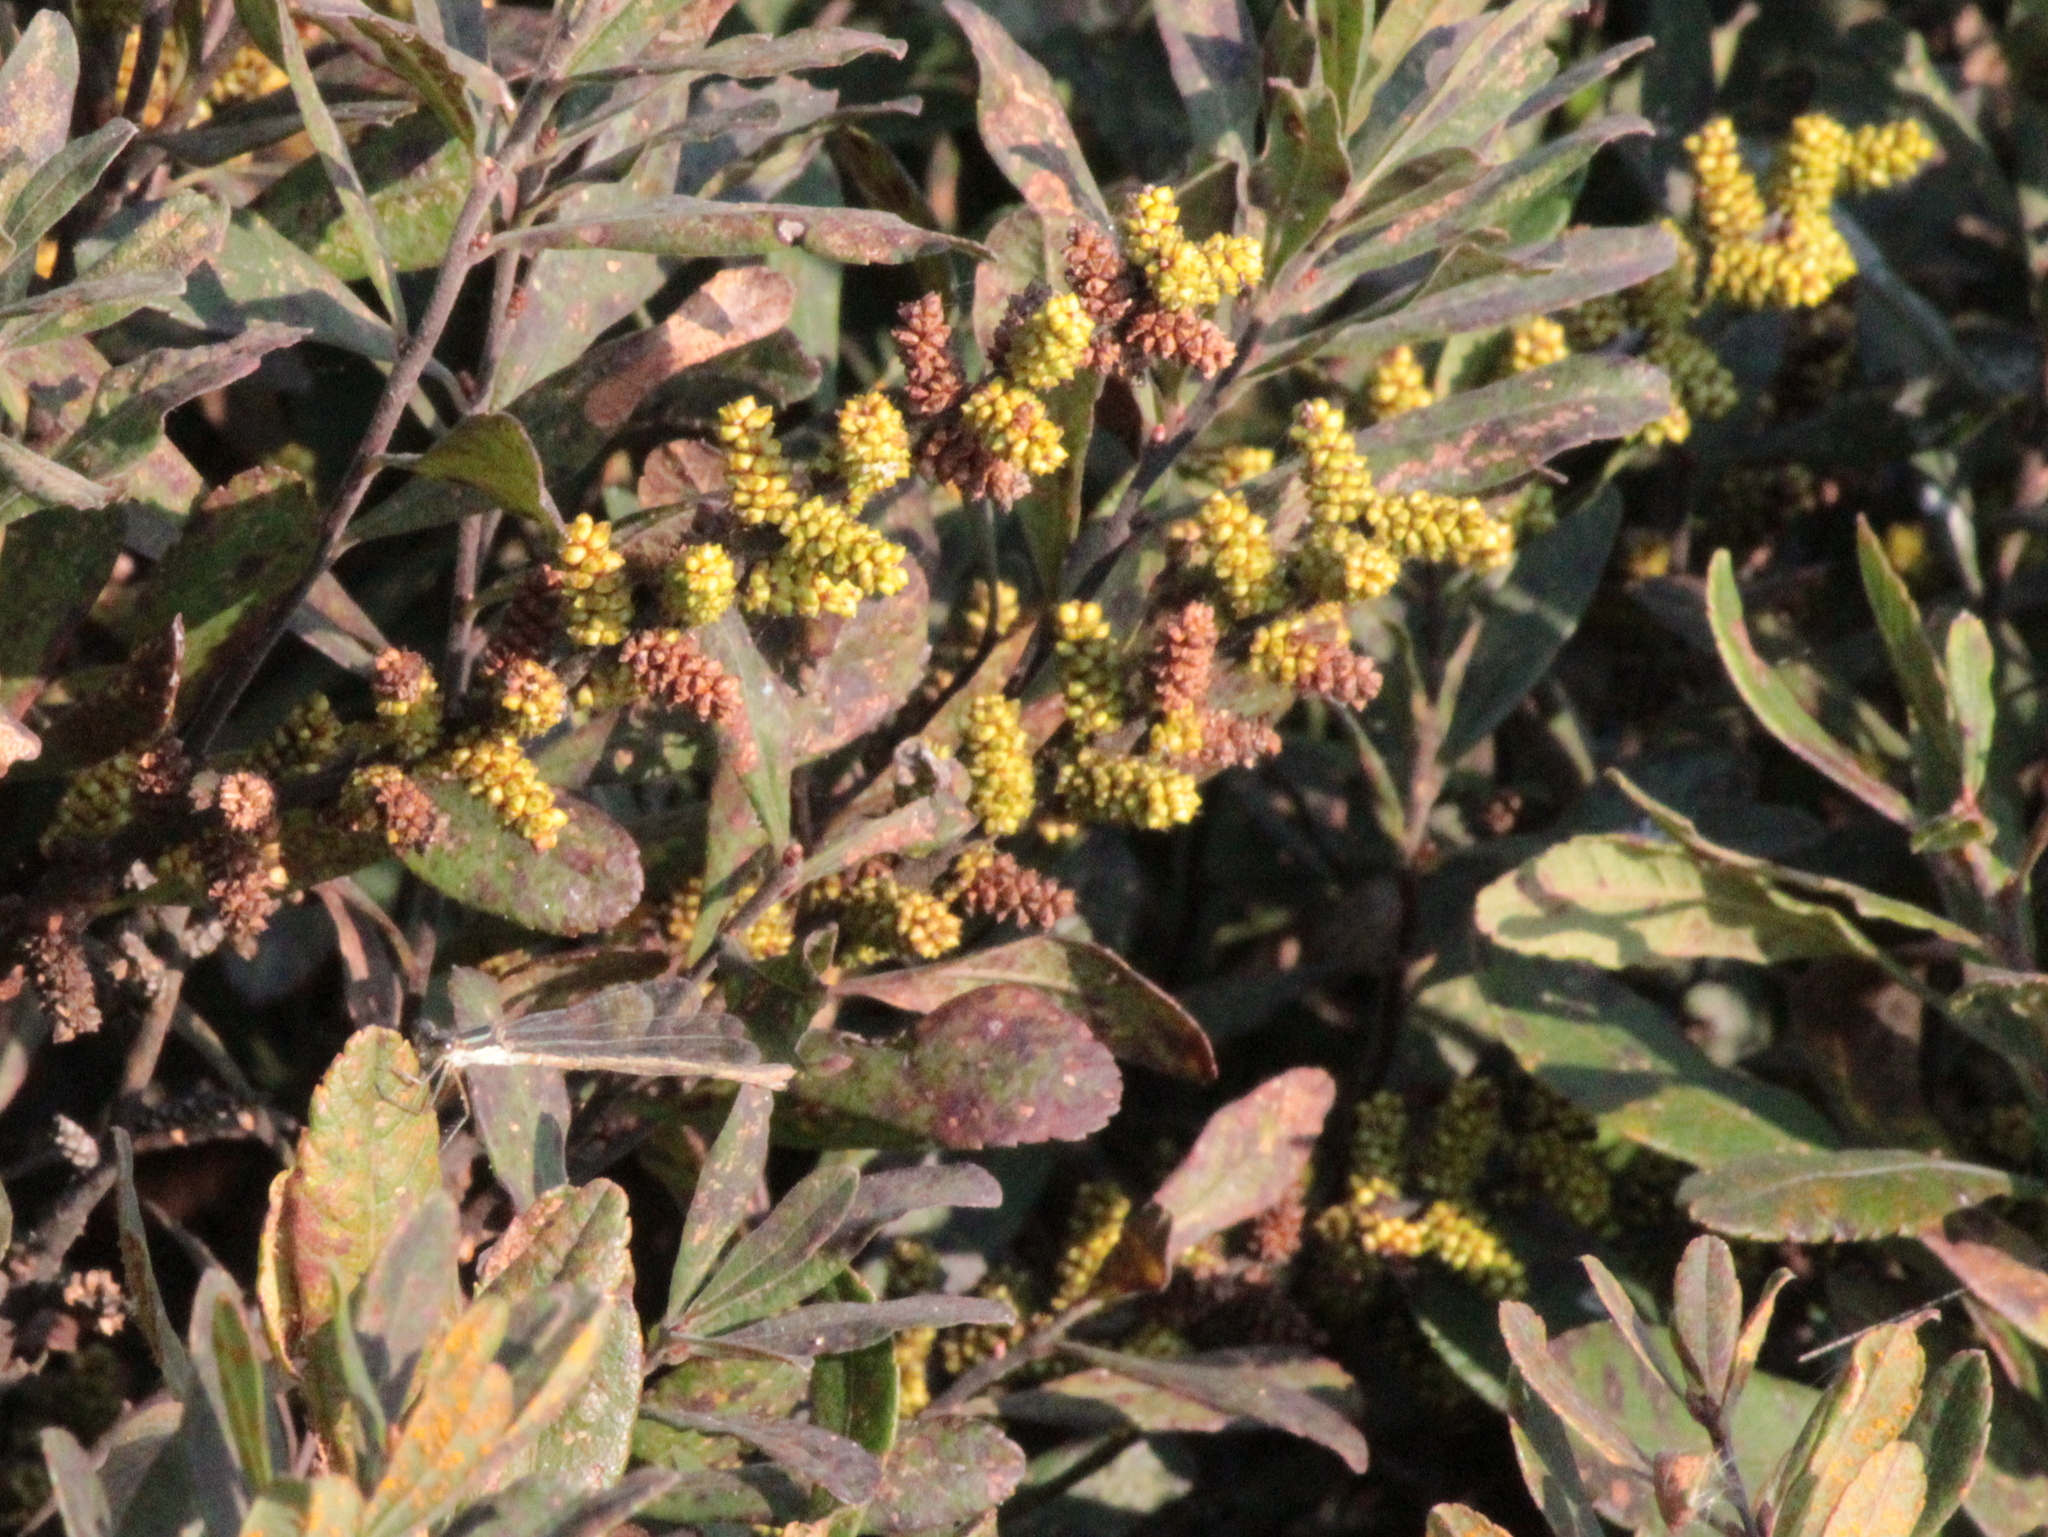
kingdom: Plantae
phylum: Tracheophyta
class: Magnoliopsida
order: Fagales
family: Myricaceae
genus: Myrica
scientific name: Myrica gale
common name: Sweet gale
